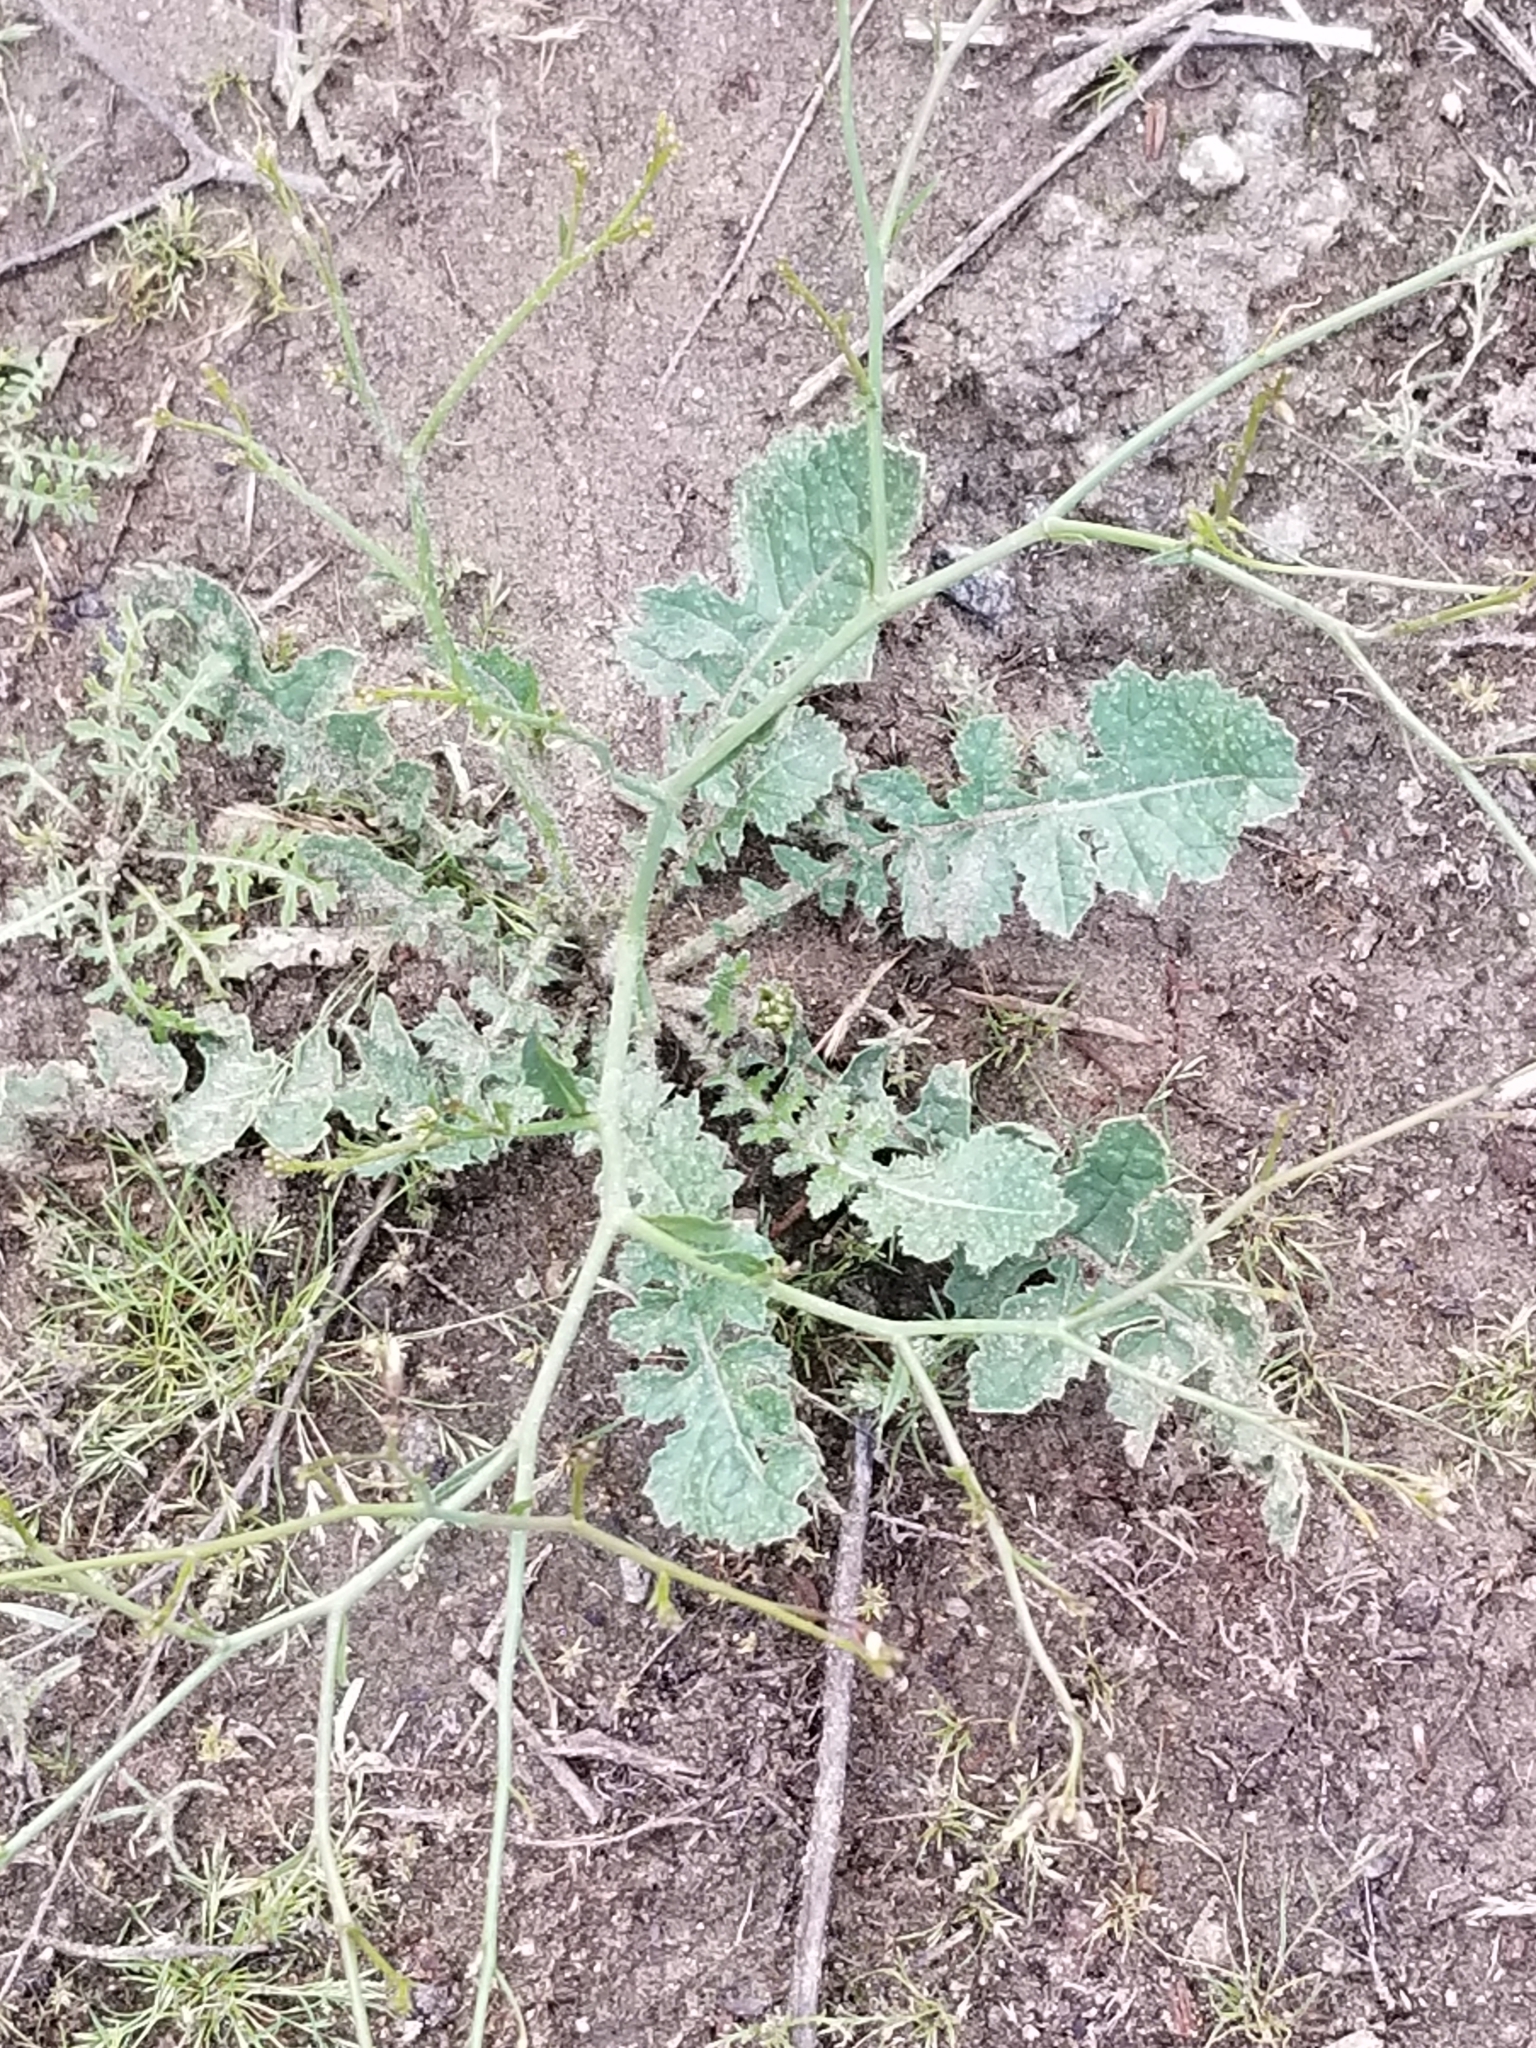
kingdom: Plantae
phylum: Tracheophyta
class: Magnoliopsida
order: Brassicales
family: Brassicaceae
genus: Brassica
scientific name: Brassica tournefortii
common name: Pale cabbage
